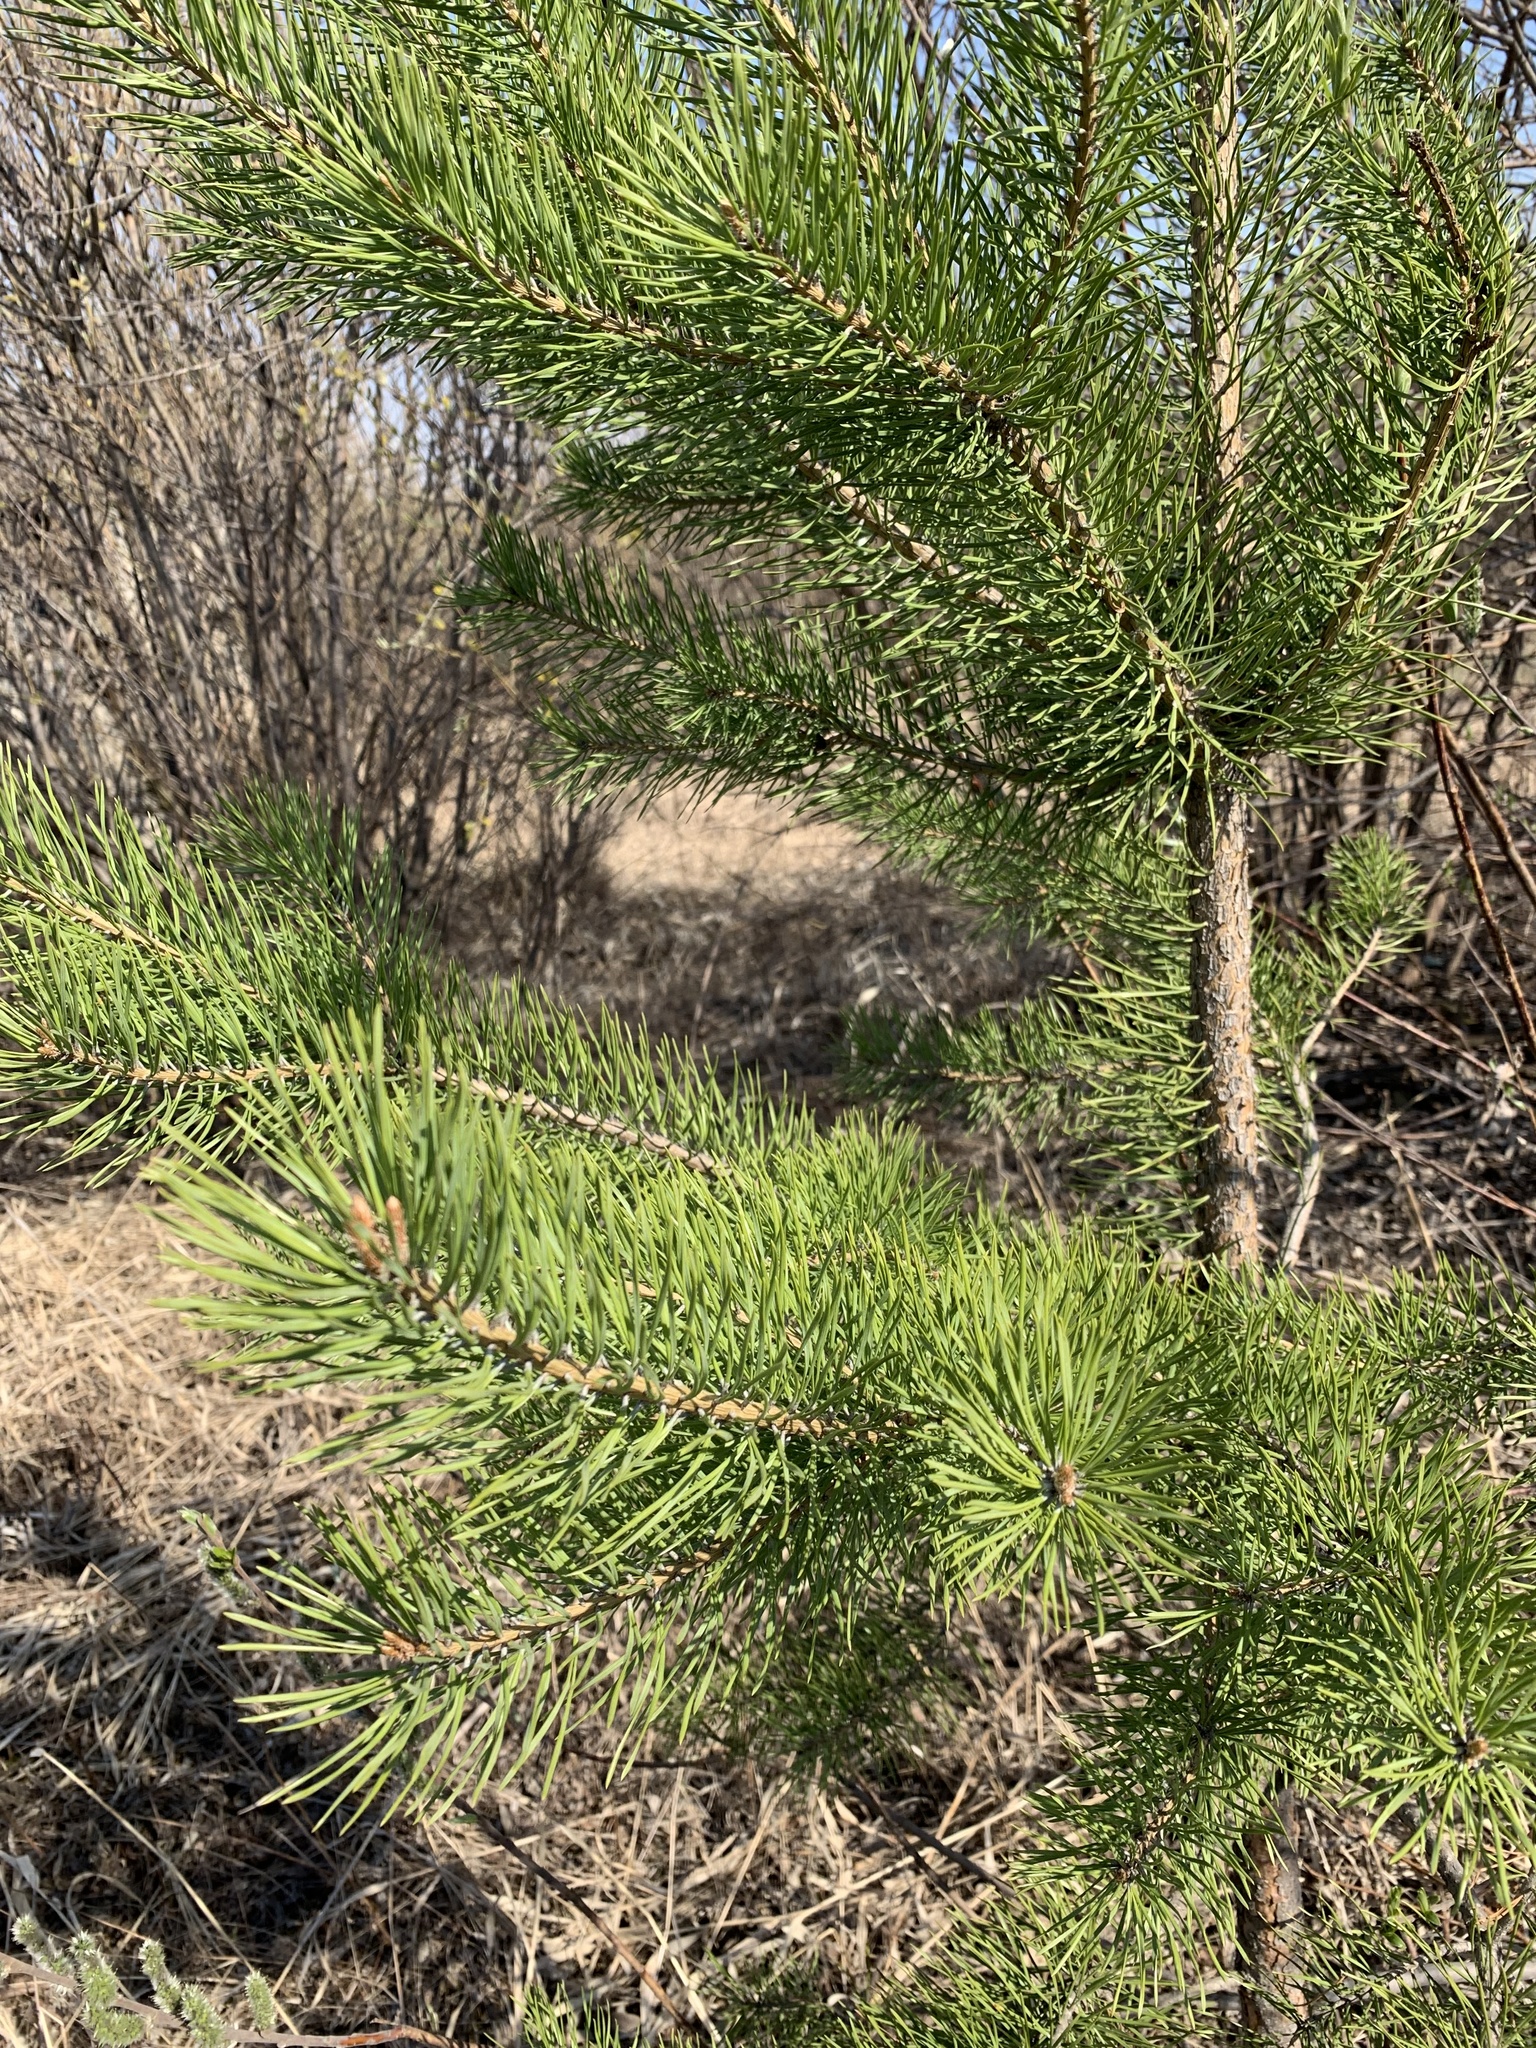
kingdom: Plantae
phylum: Tracheophyta
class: Pinopsida
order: Pinales
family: Pinaceae
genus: Pinus
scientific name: Pinus sylvestris
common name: Scots pine
